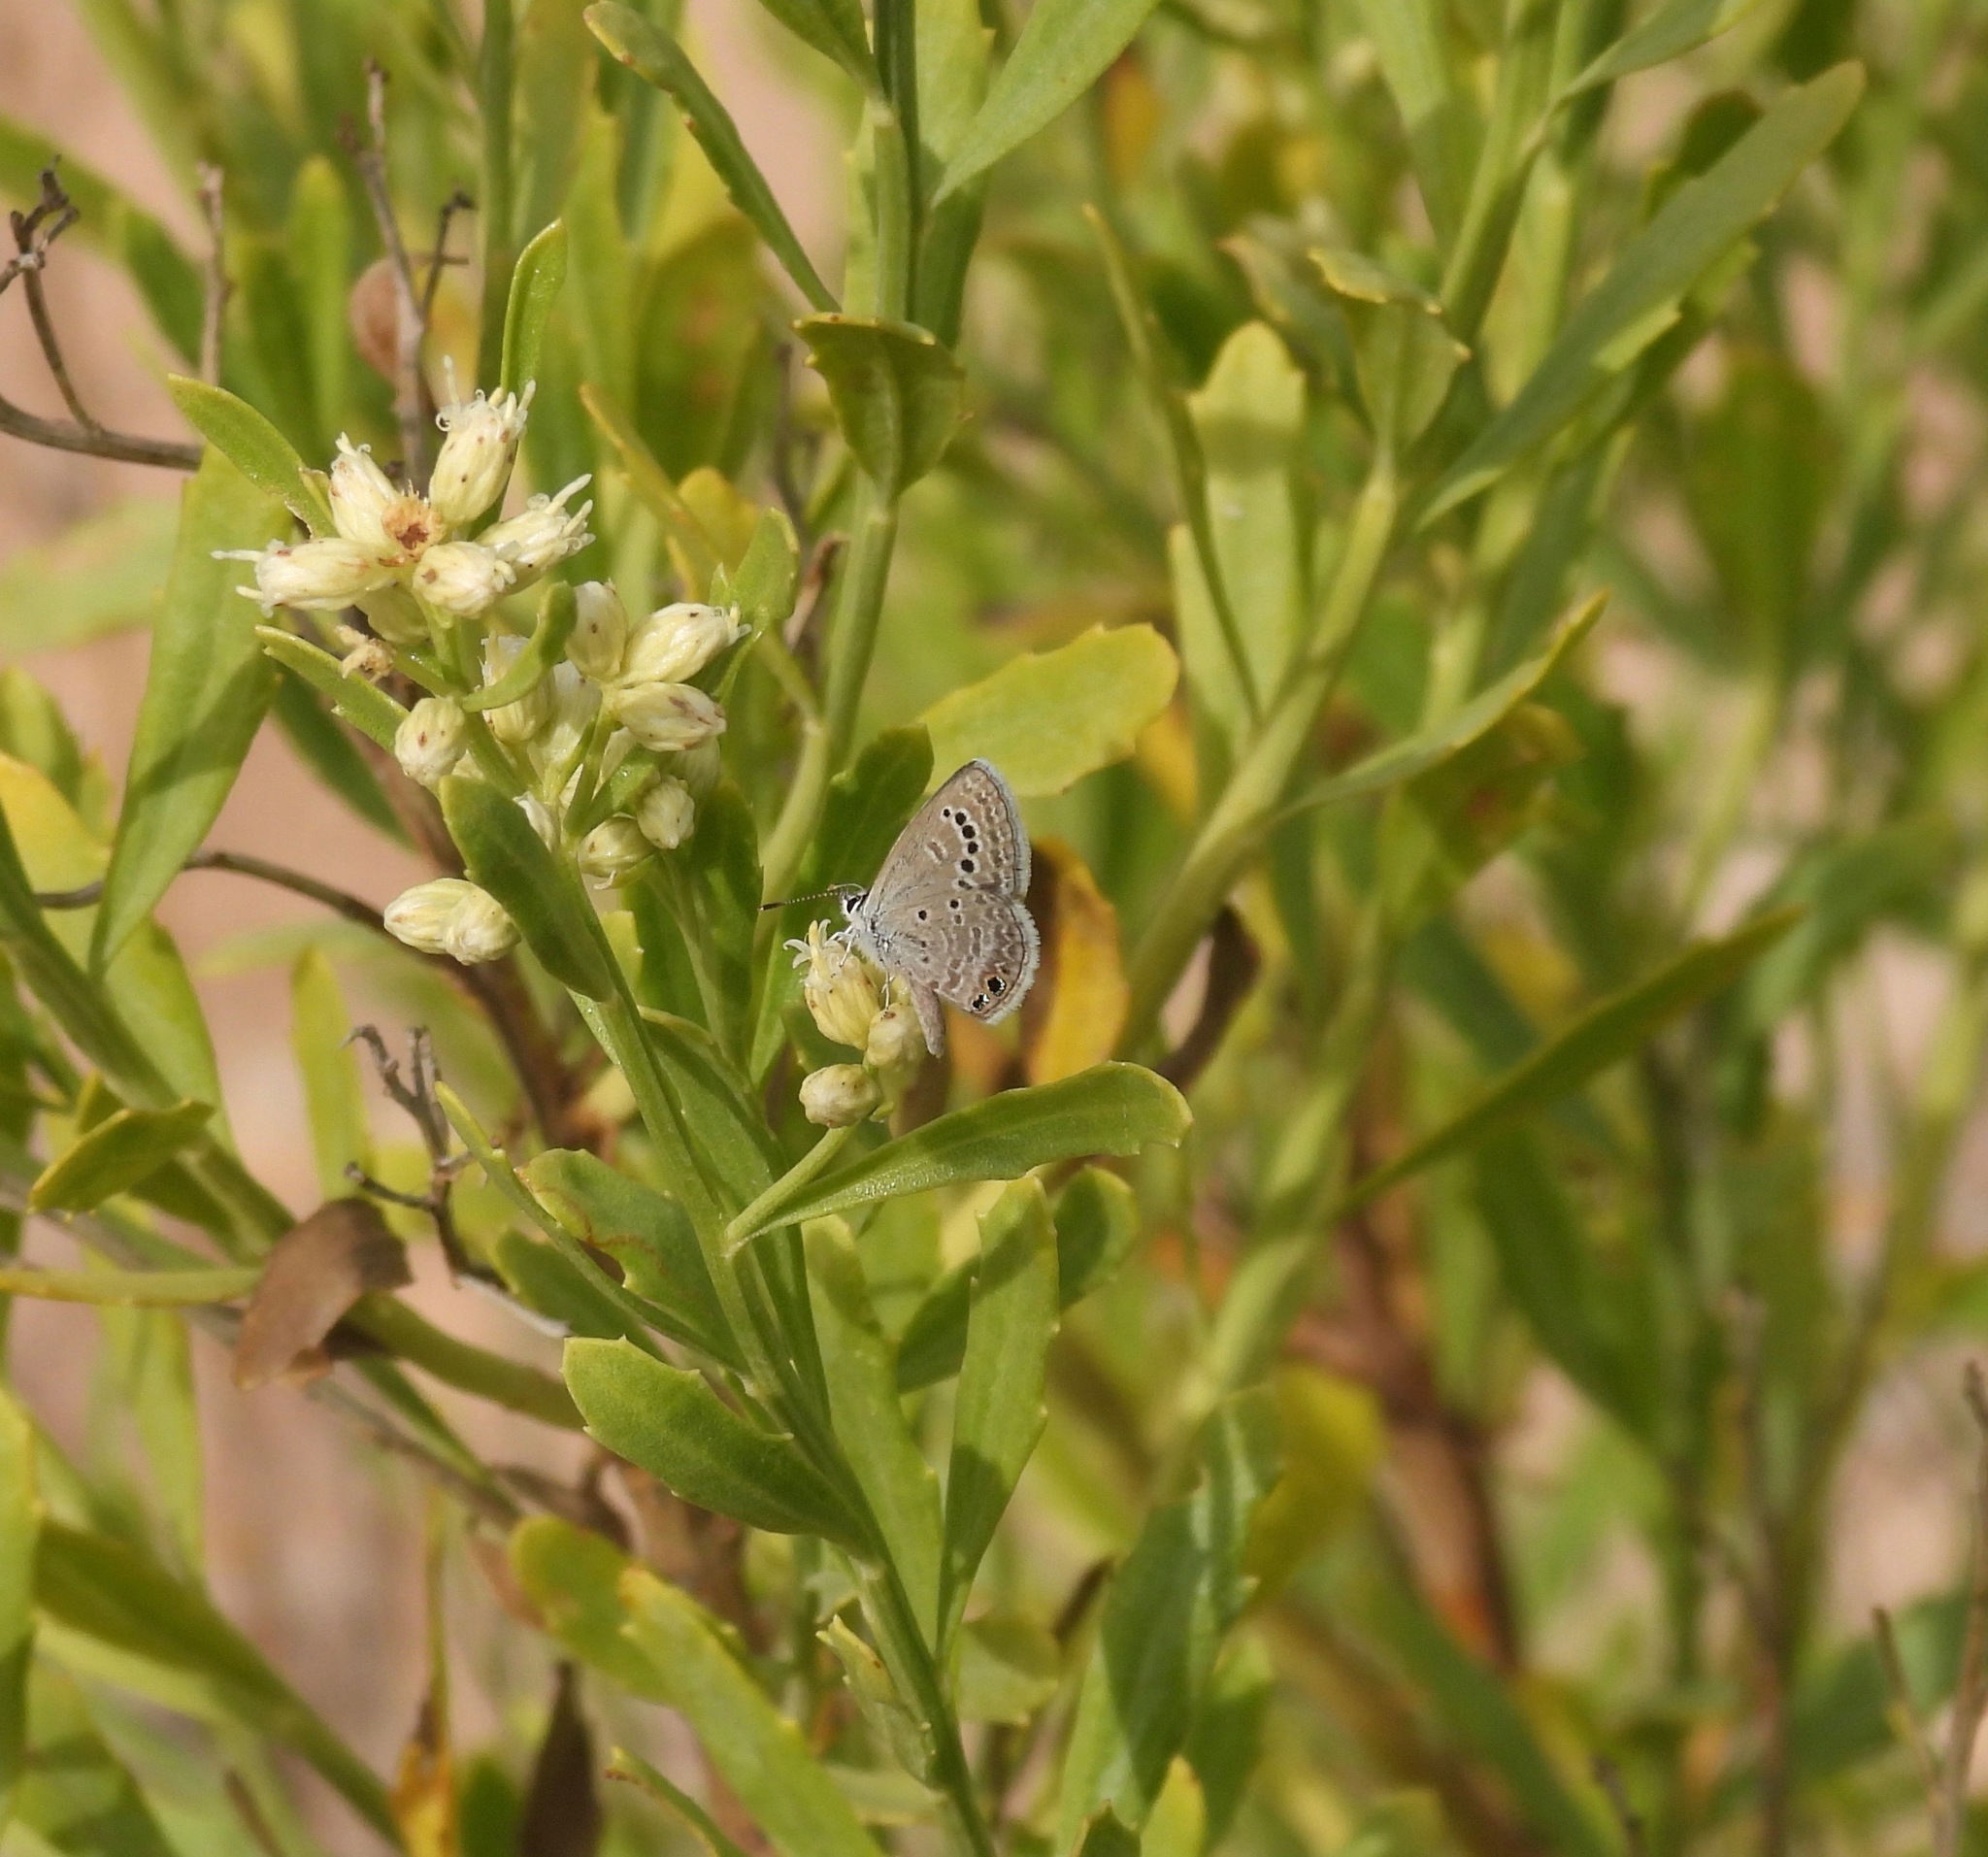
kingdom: Animalia
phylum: Arthropoda
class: Insecta
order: Lepidoptera
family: Lycaenidae
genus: Echinargus
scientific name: Echinargus isola
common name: Reakirt's blue
